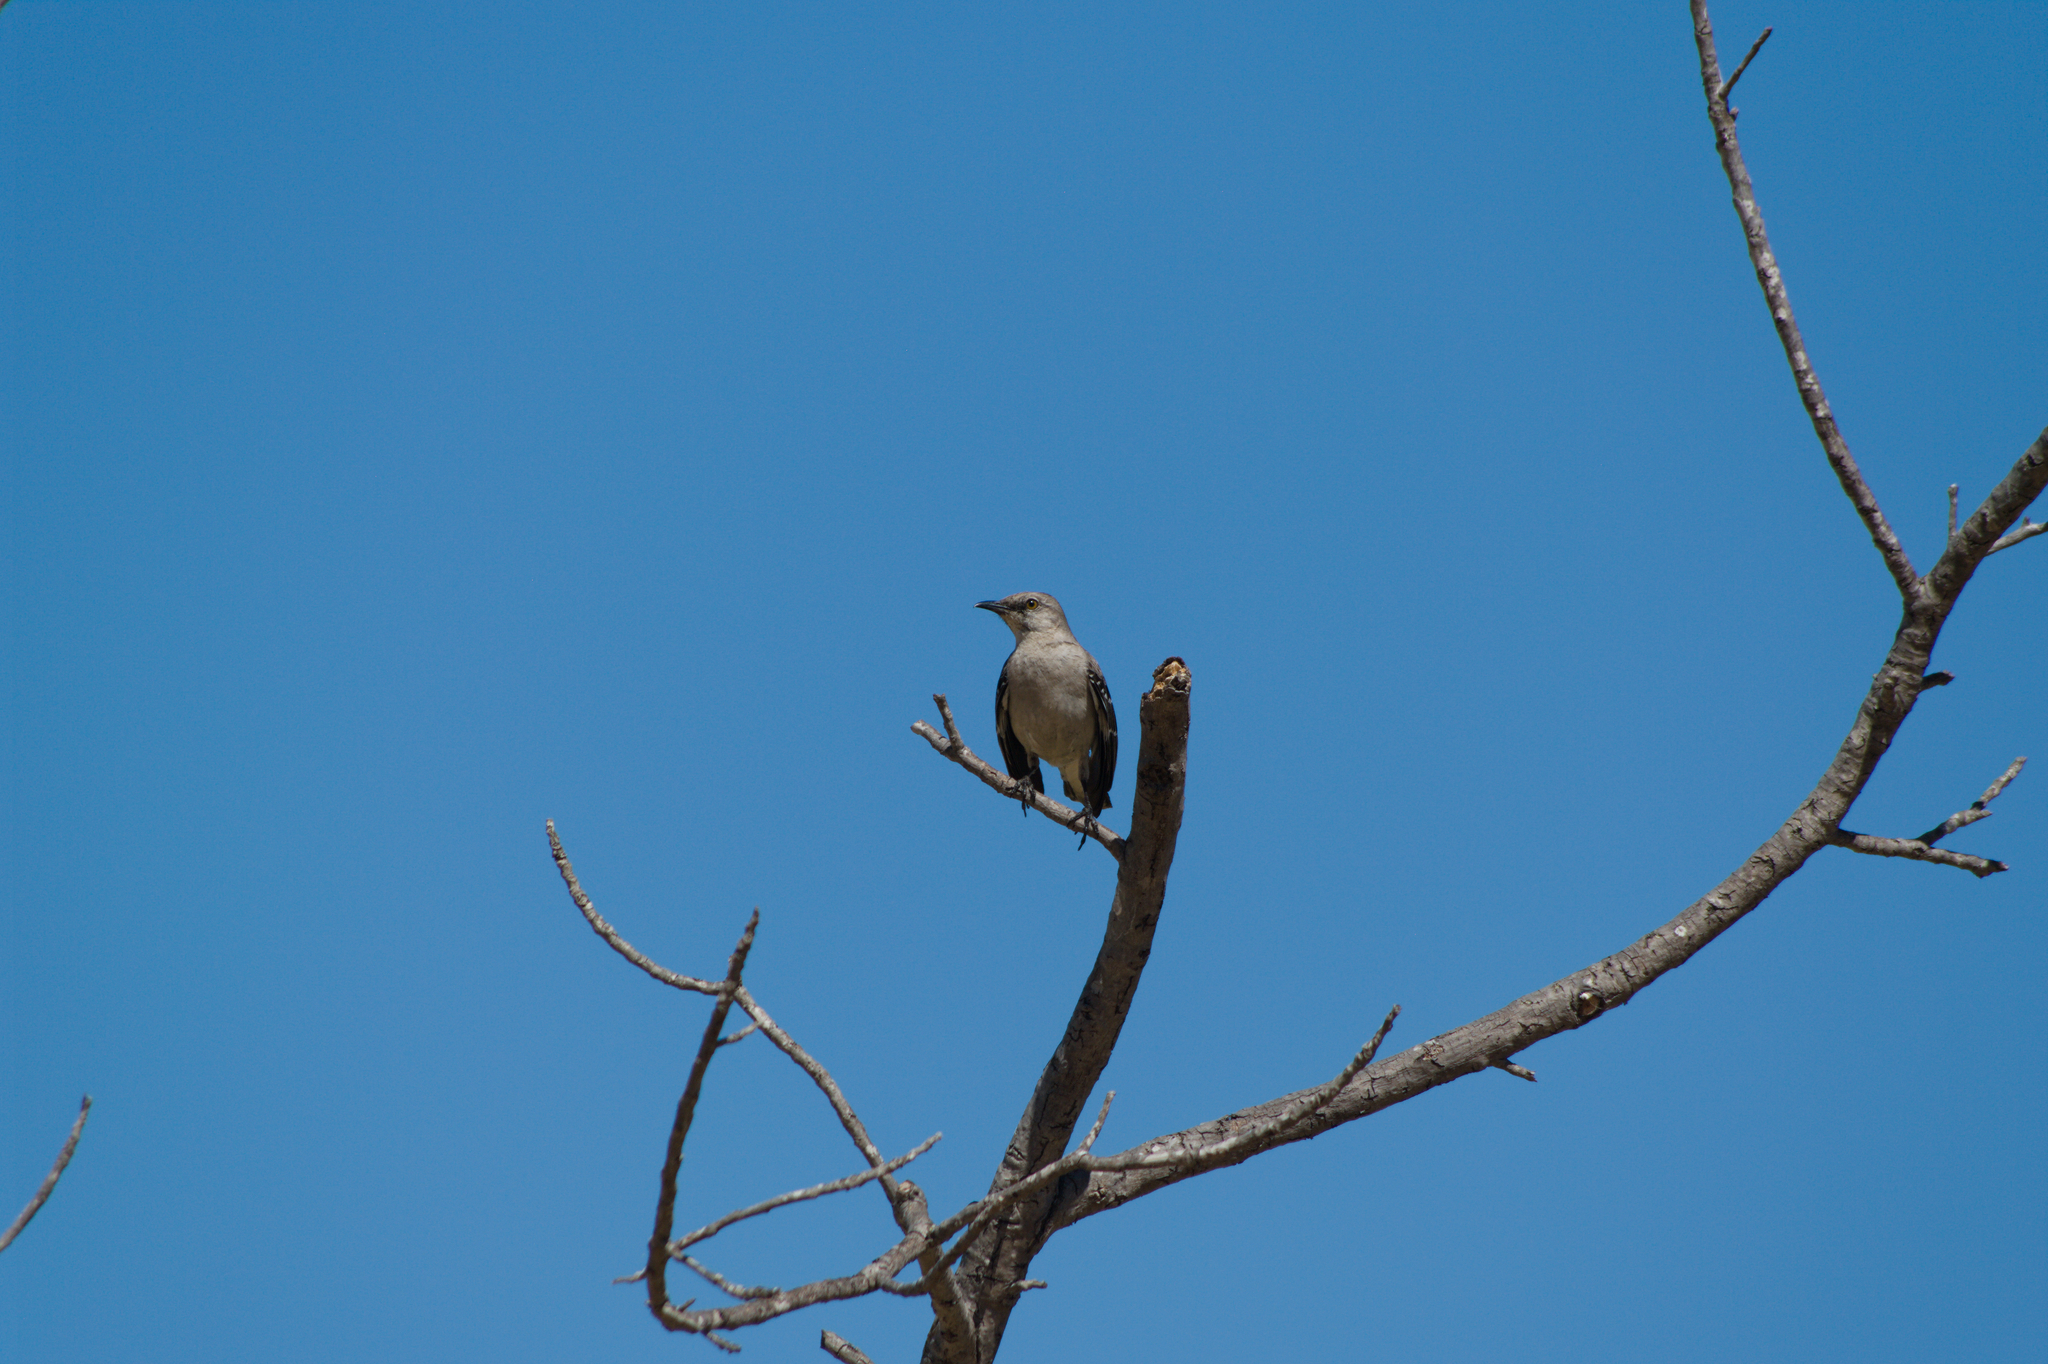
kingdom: Animalia
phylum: Chordata
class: Aves
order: Passeriformes
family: Mimidae
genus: Mimus
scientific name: Mimus polyglottos
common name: Northern mockingbird
